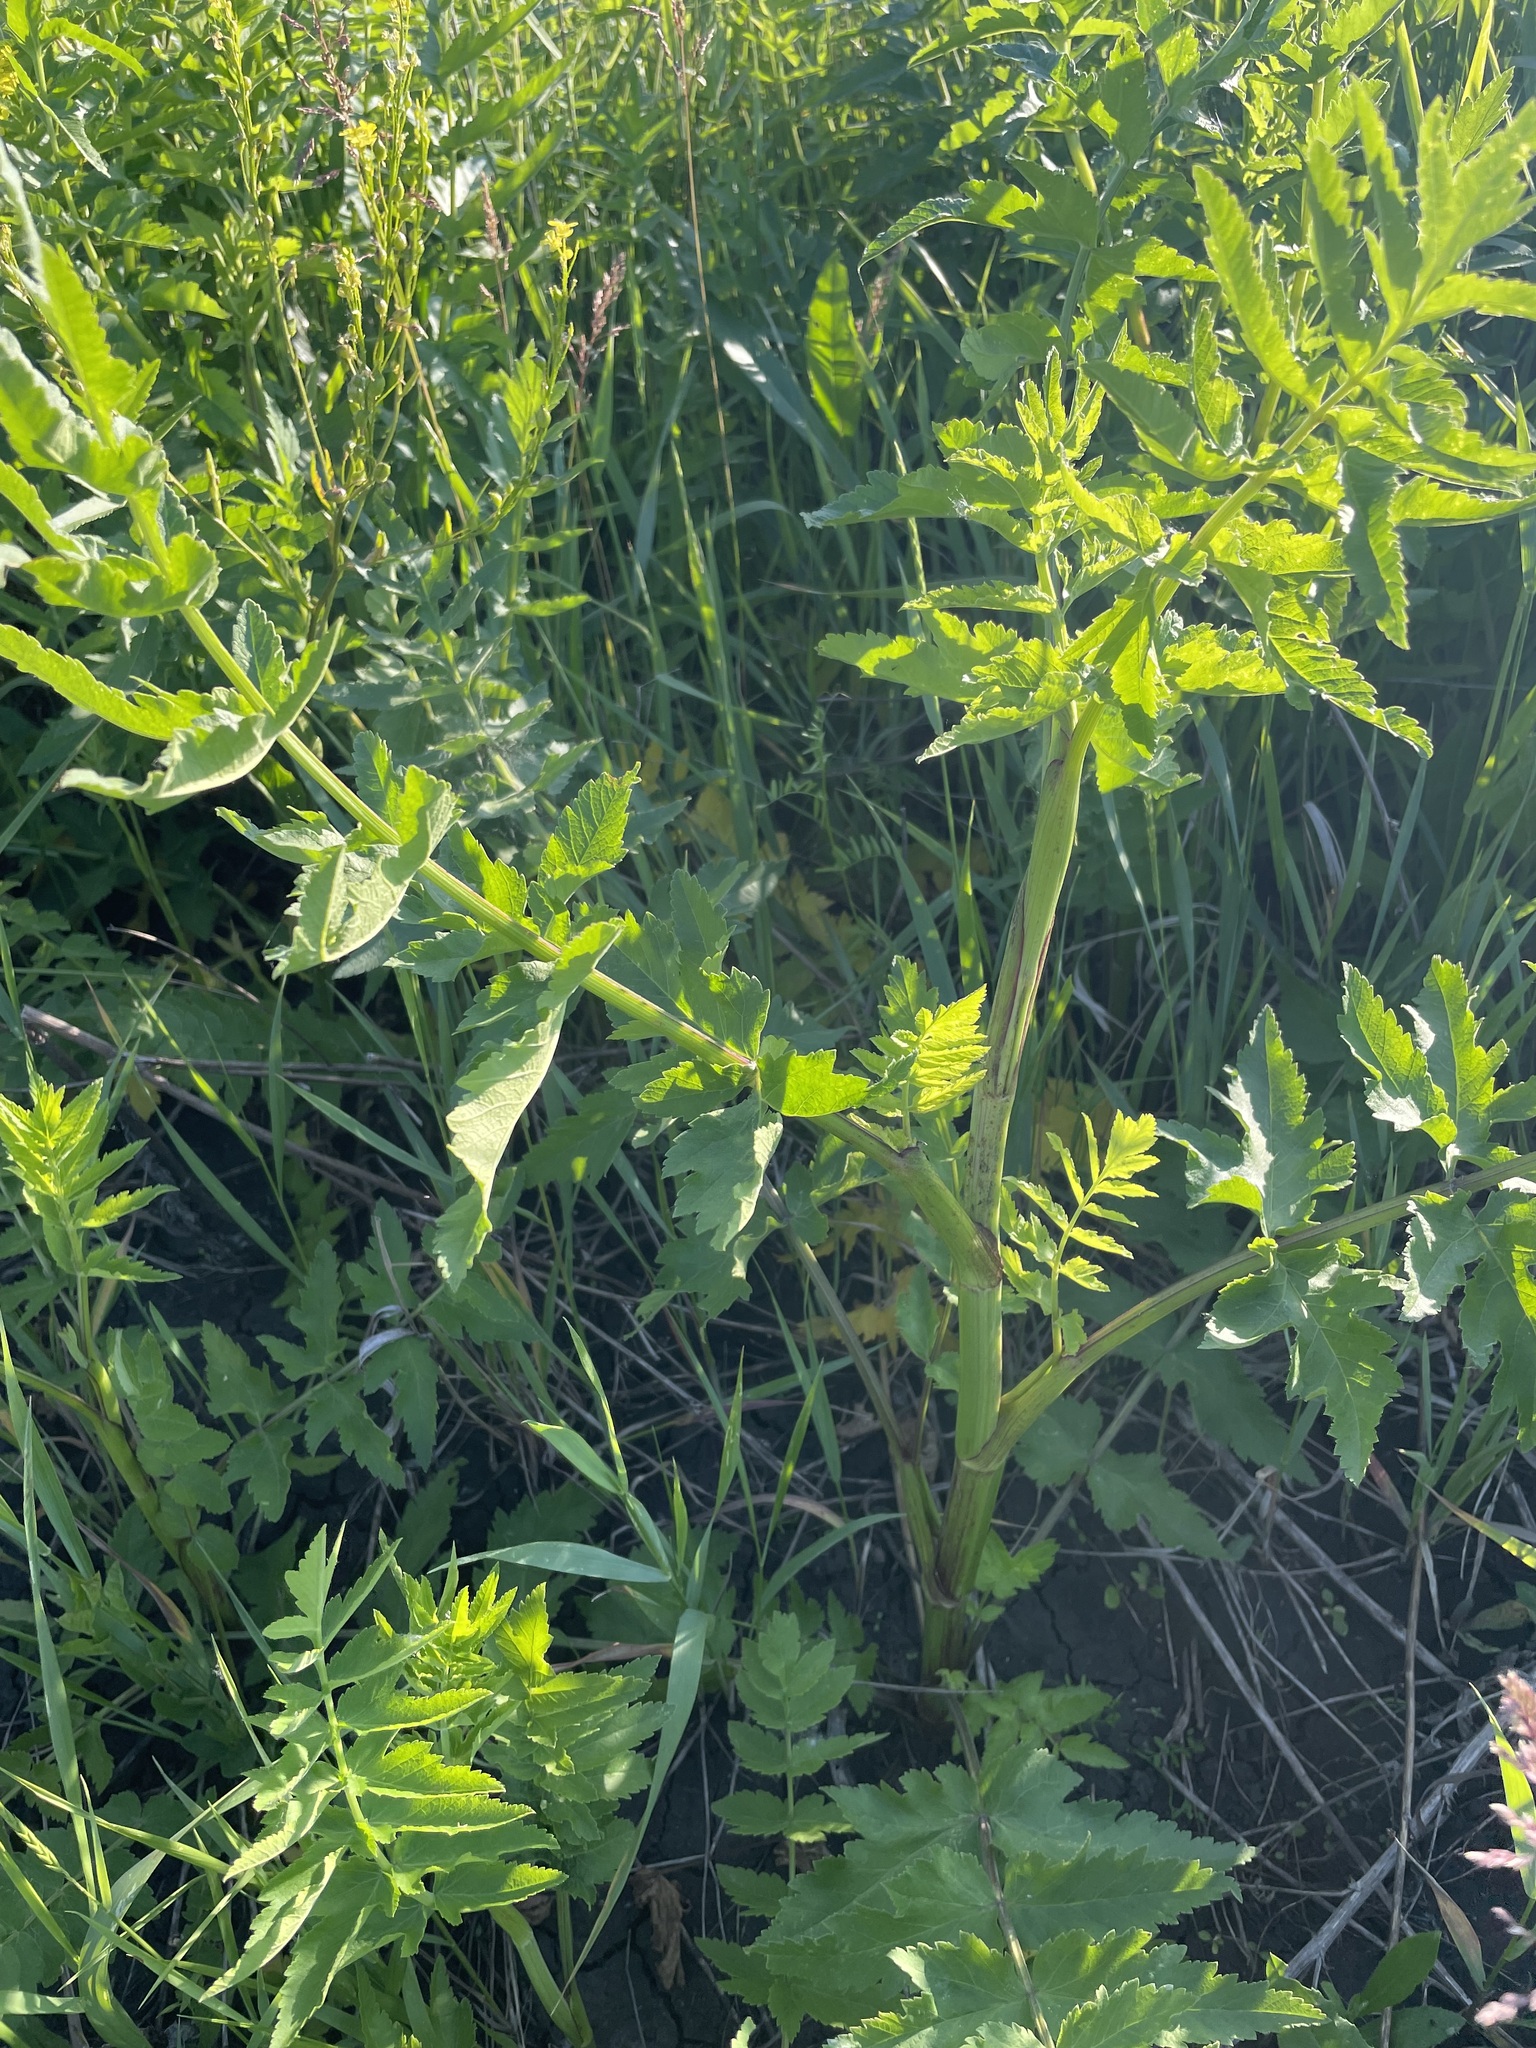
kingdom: Plantae
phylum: Tracheophyta
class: Magnoliopsida
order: Apiales
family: Apiaceae
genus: Pastinaca
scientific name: Pastinaca sativa
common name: Wild parsnip
